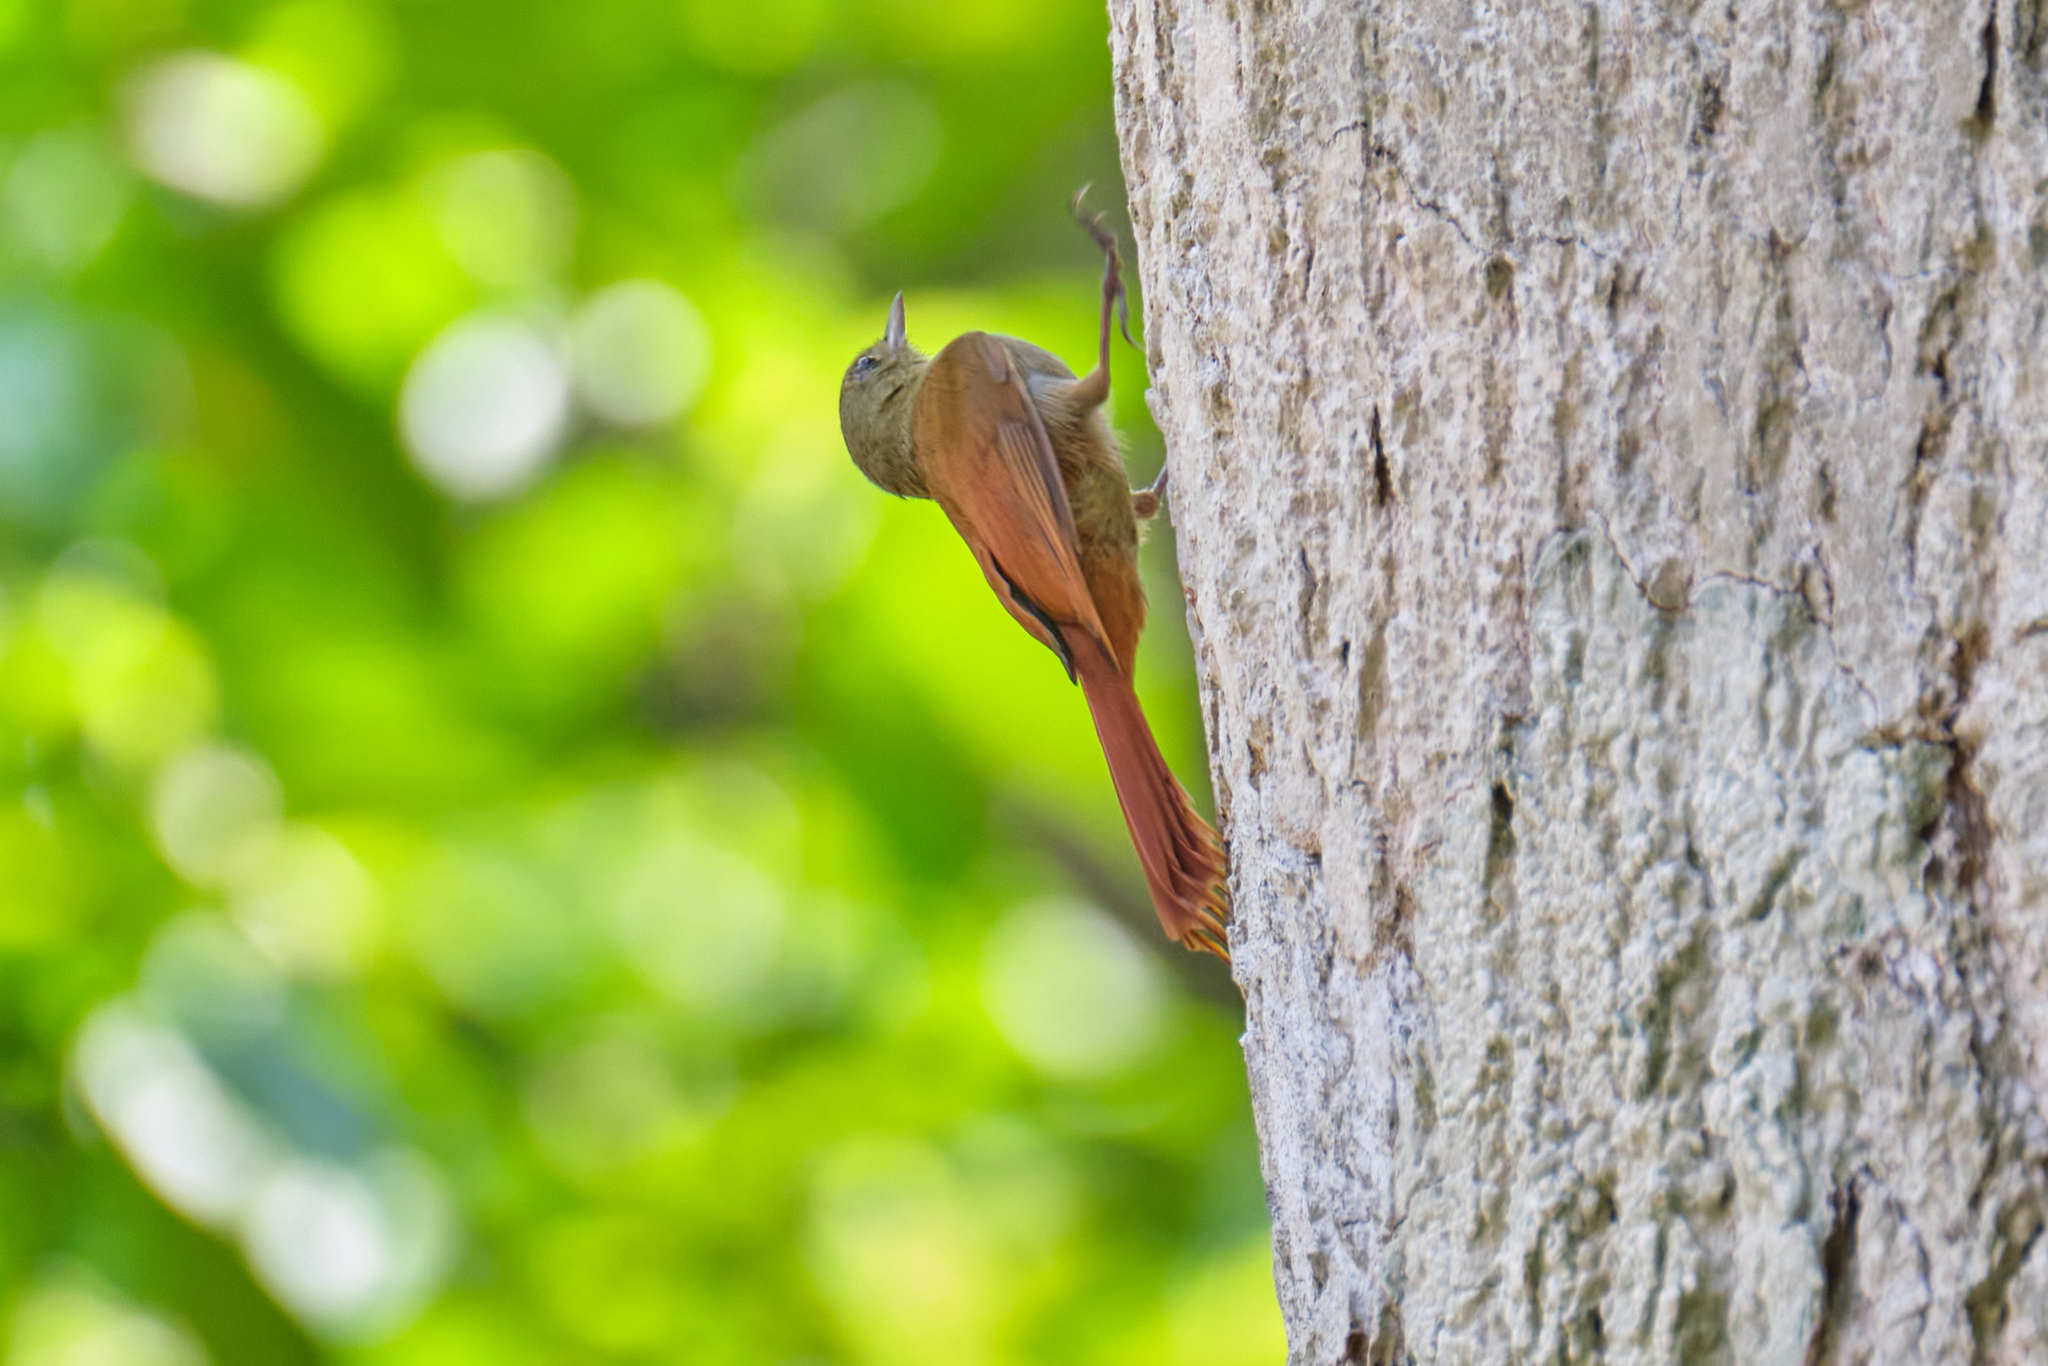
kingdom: Animalia
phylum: Chordata
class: Aves
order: Passeriformes
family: Furnariidae
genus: Sittasomus
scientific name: Sittasomus griseicapillus
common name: Olivaceous woodcreeper
